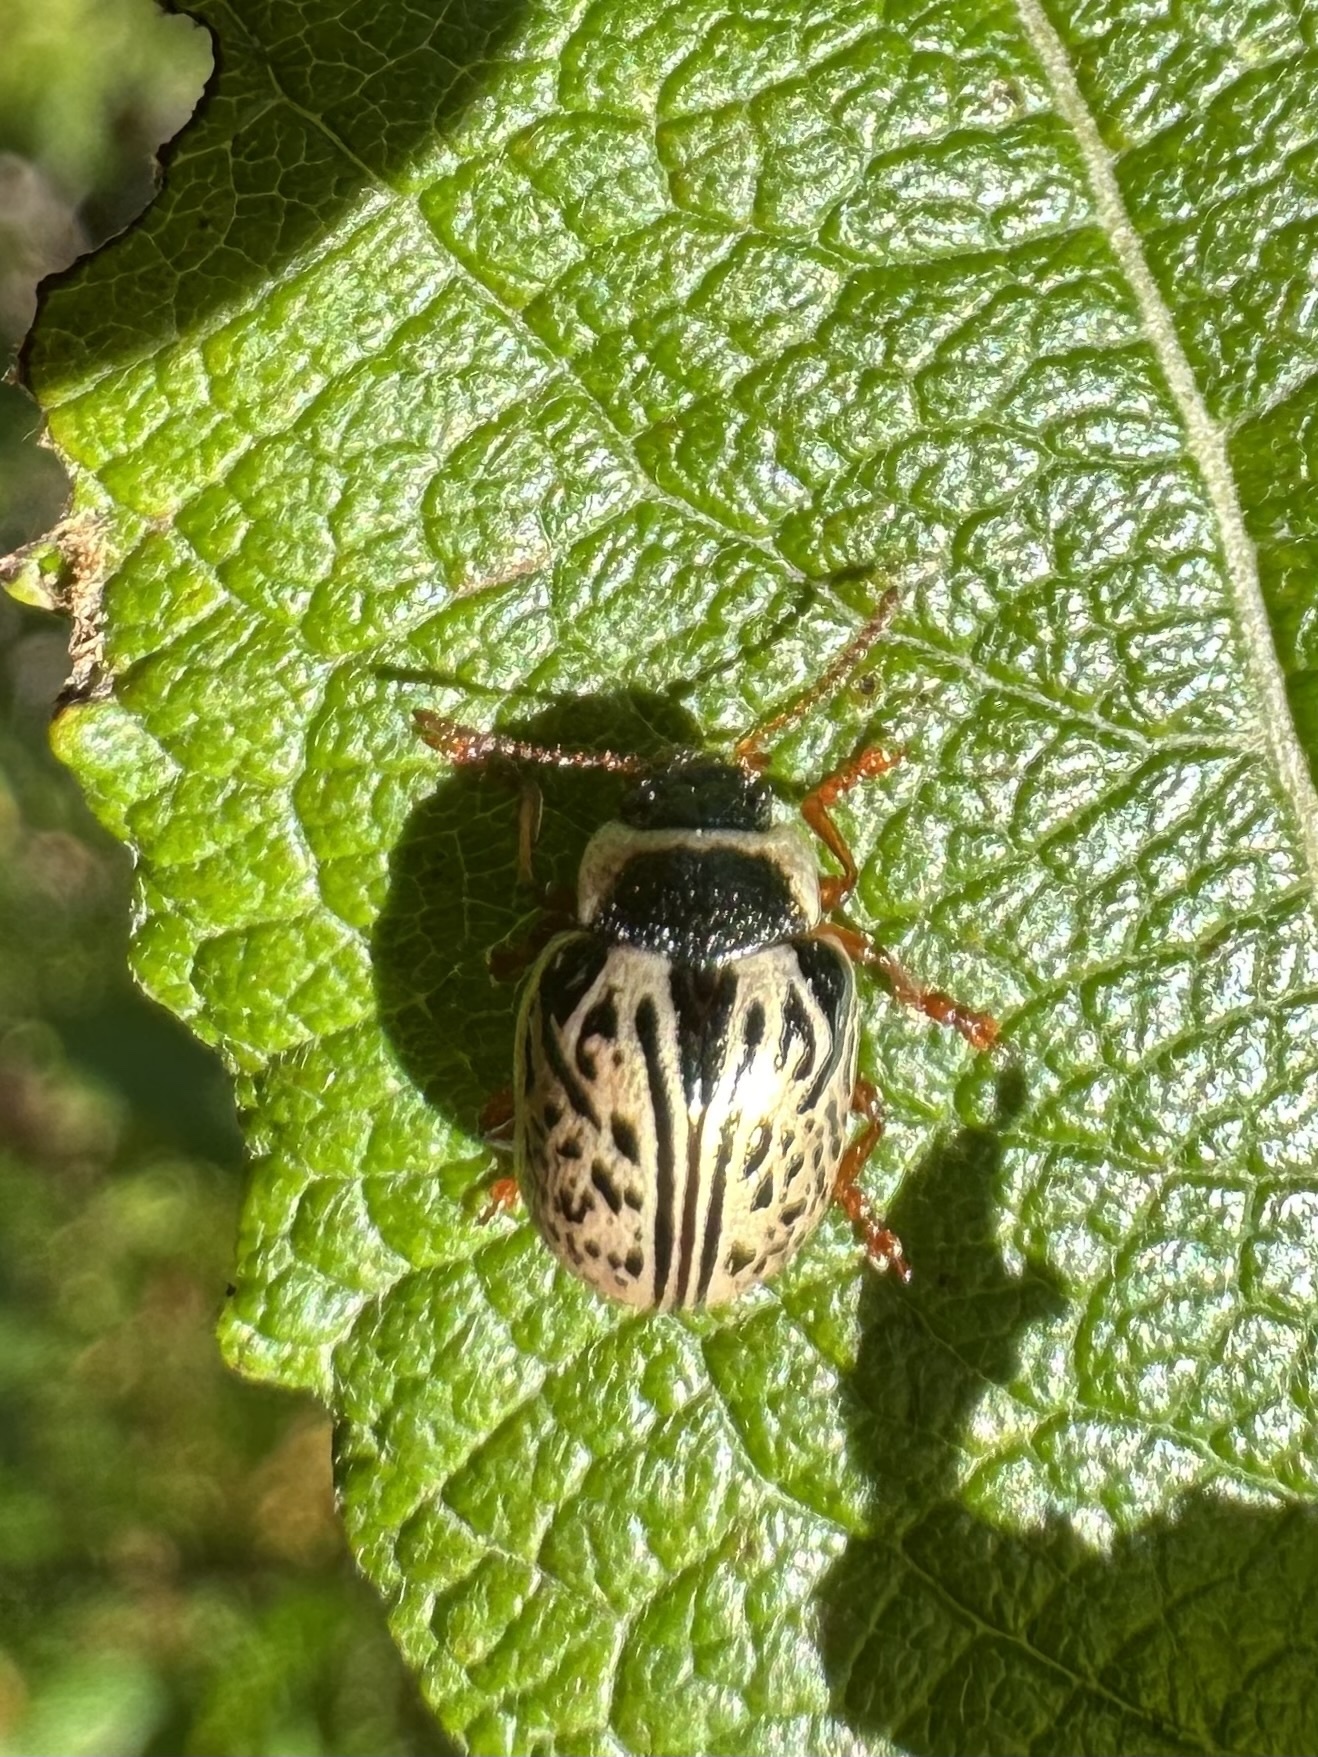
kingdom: Animalia
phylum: Arthropoda
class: Insecta
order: Coleoptera
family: Chrysomelidae
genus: Calligrapha
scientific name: Calligrapha multipunctata
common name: Common willow calligrapher beetle
